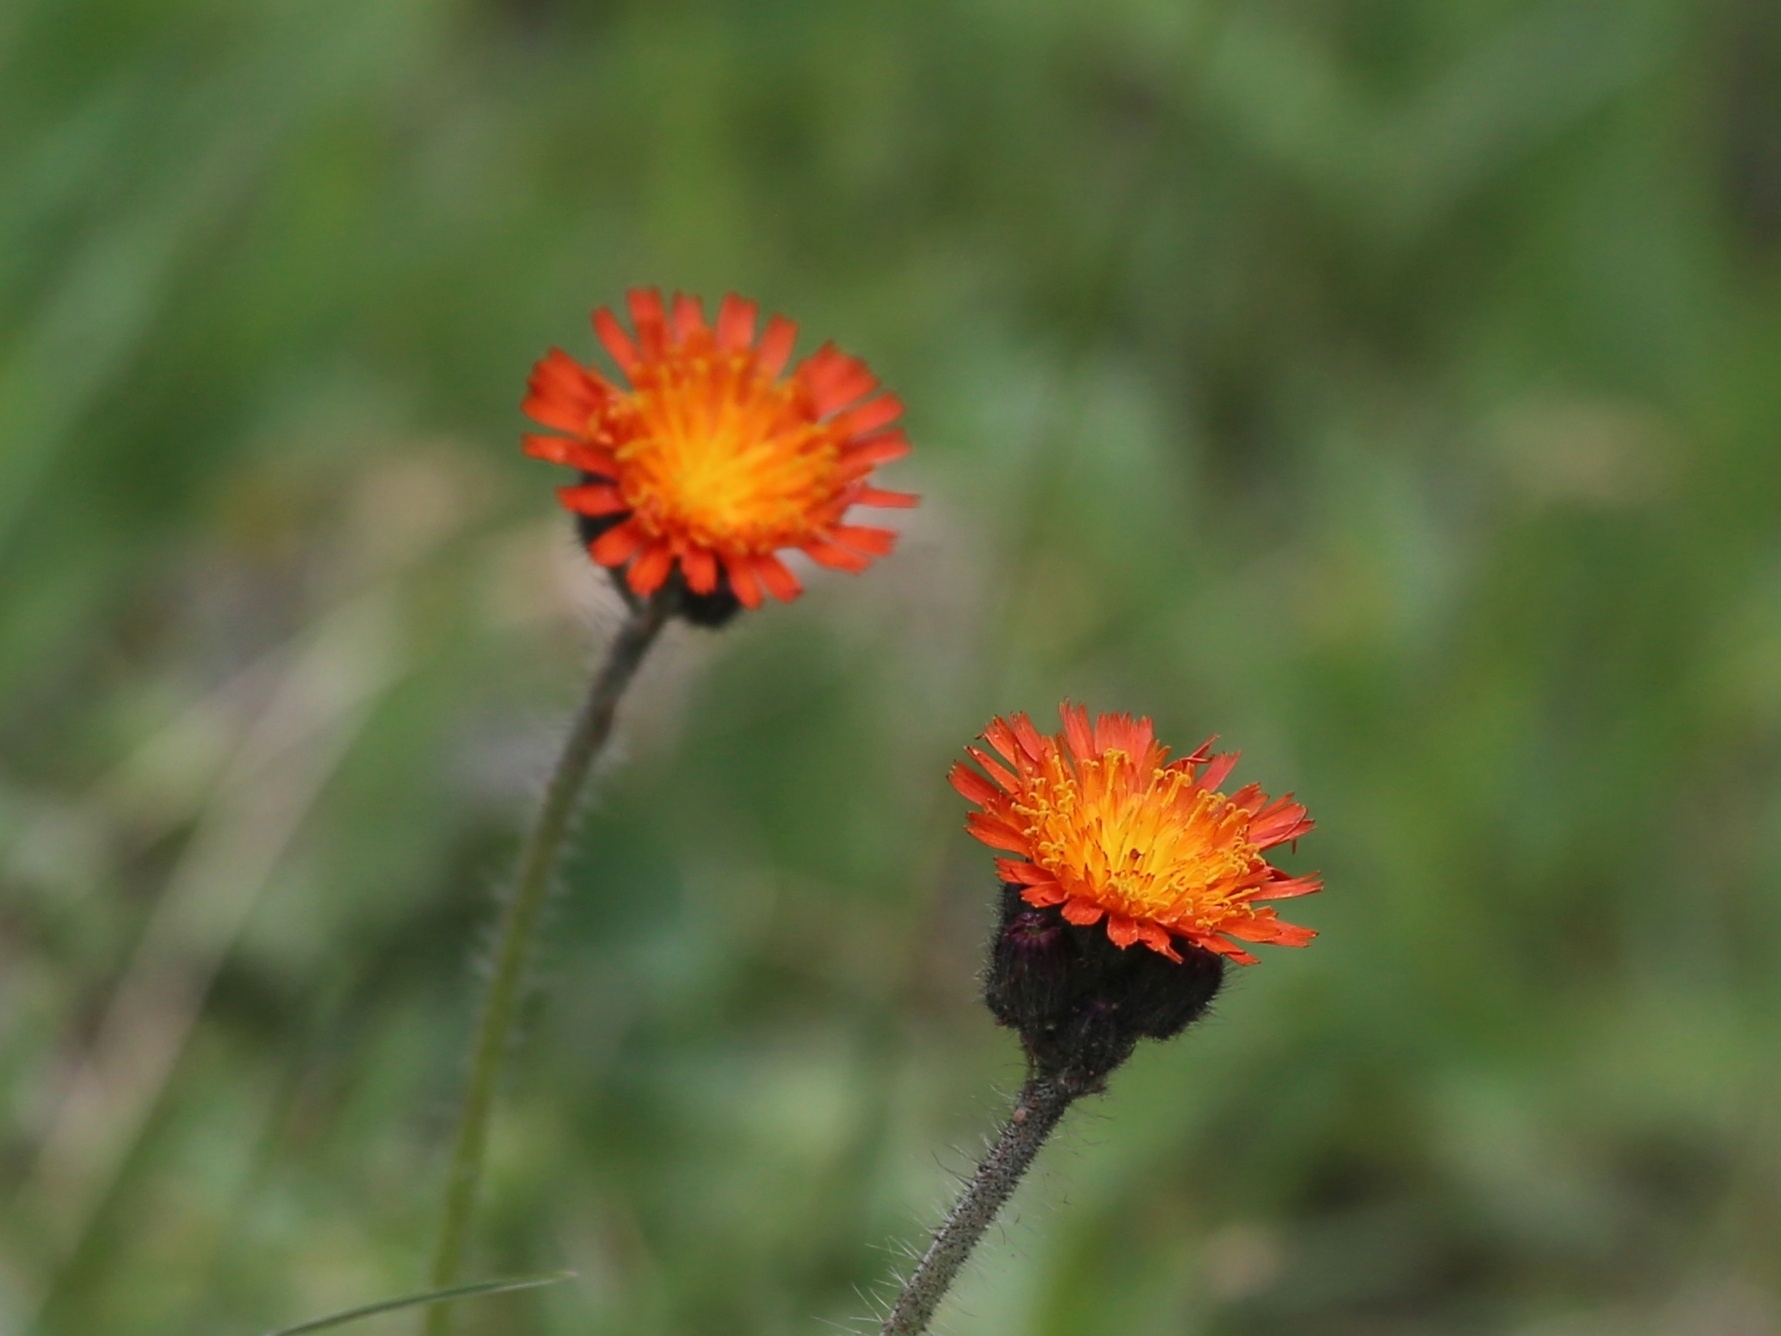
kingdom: Plantae
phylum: Tracheophyta
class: Magnoliopsida
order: Asterales
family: Asteraceae
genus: Pilosella
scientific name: Pilosella aurantiaca
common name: Fox-and-cubs
